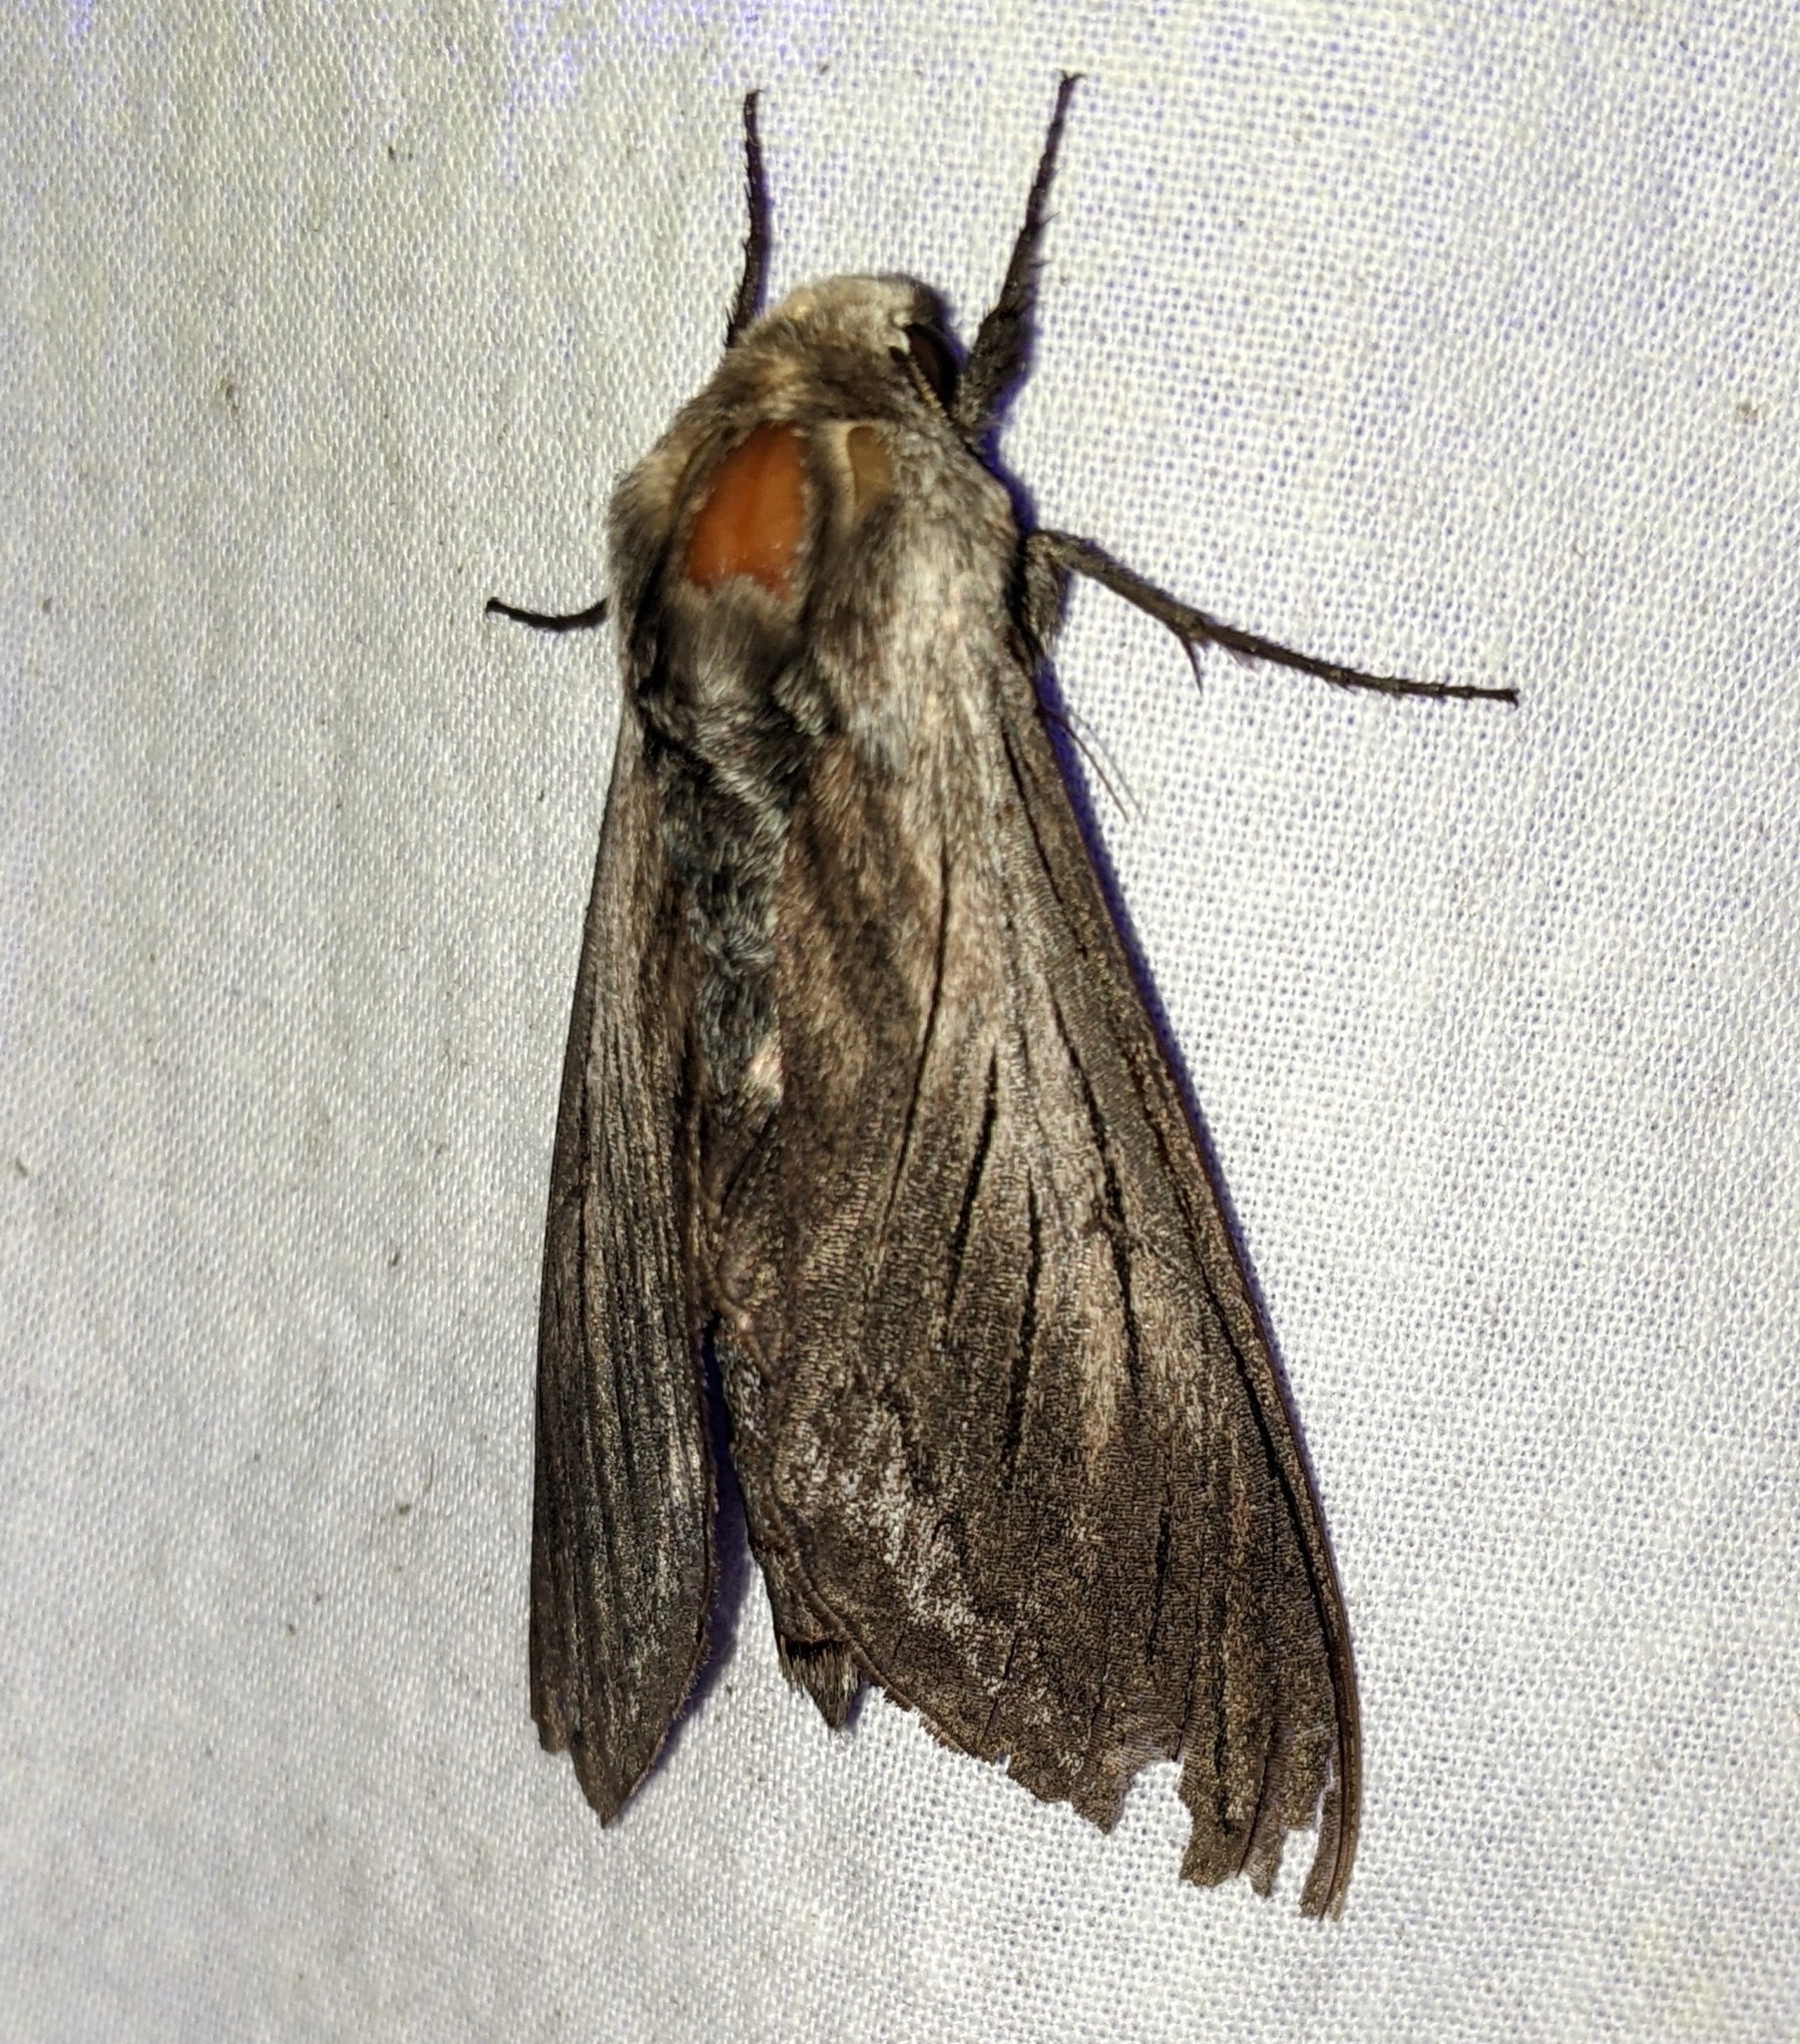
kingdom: Animalia
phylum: Arthropoda
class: Insecta
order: Lepidoptera
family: Sphingidae
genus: Sphinx
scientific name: Sphinx perelegans
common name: Elegant sphinx
